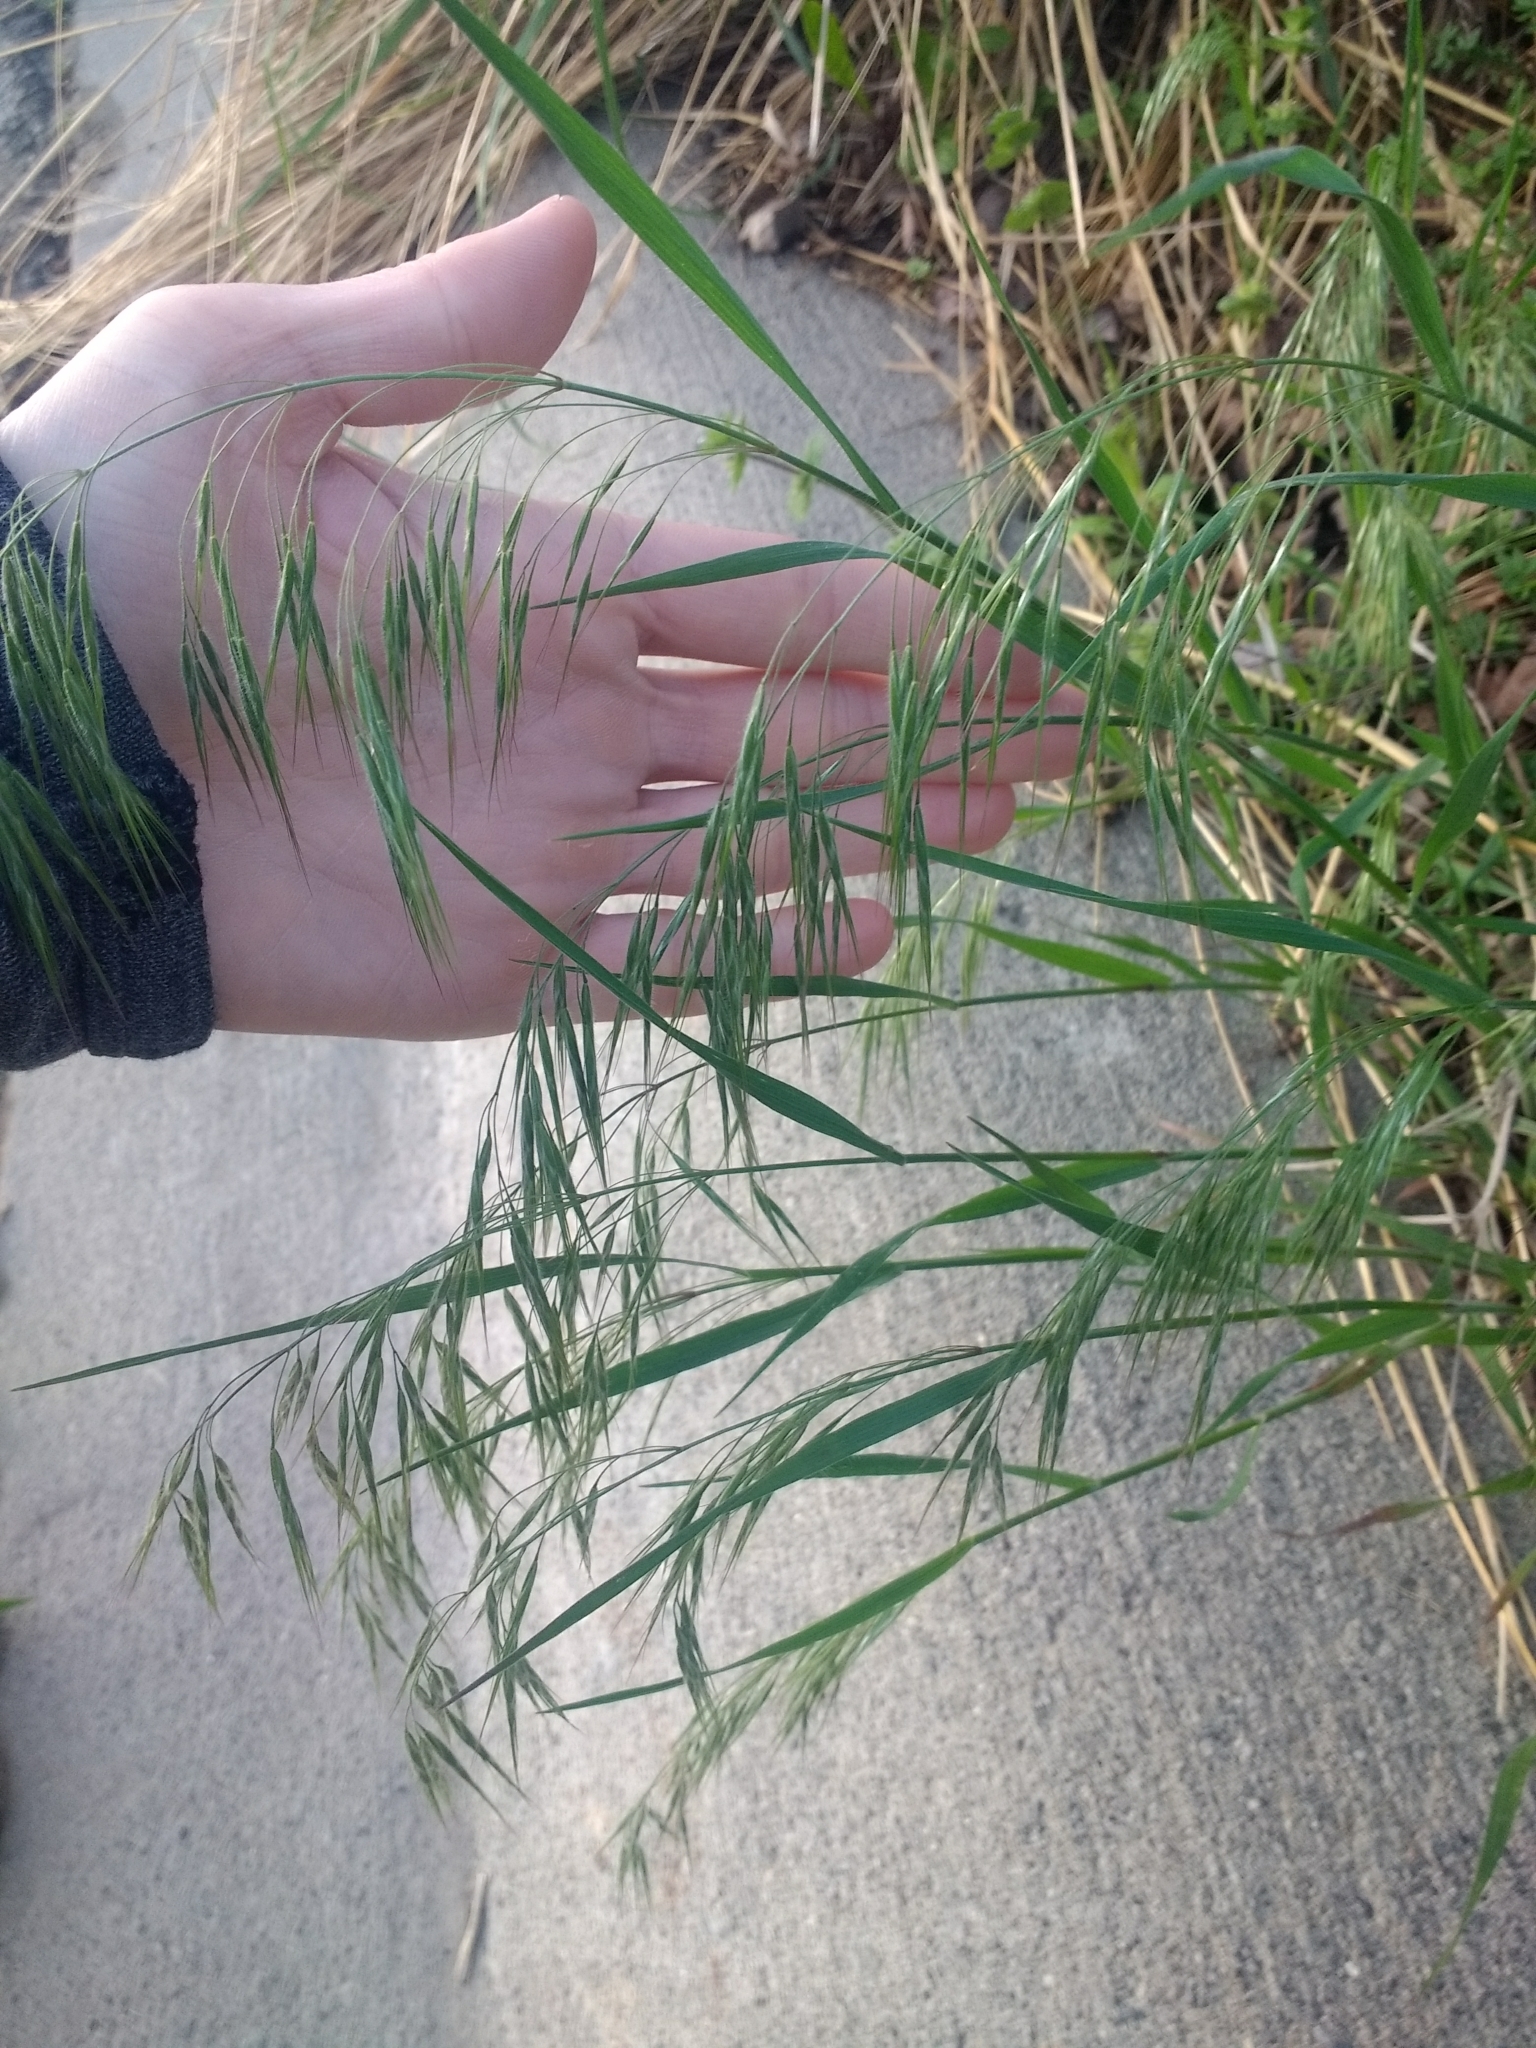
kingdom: Plantae
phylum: Tracheophyta
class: Liliopsida
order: Poales
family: Poaceae
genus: Bromus
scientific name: Bromus tectorum
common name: Cheatgrass
